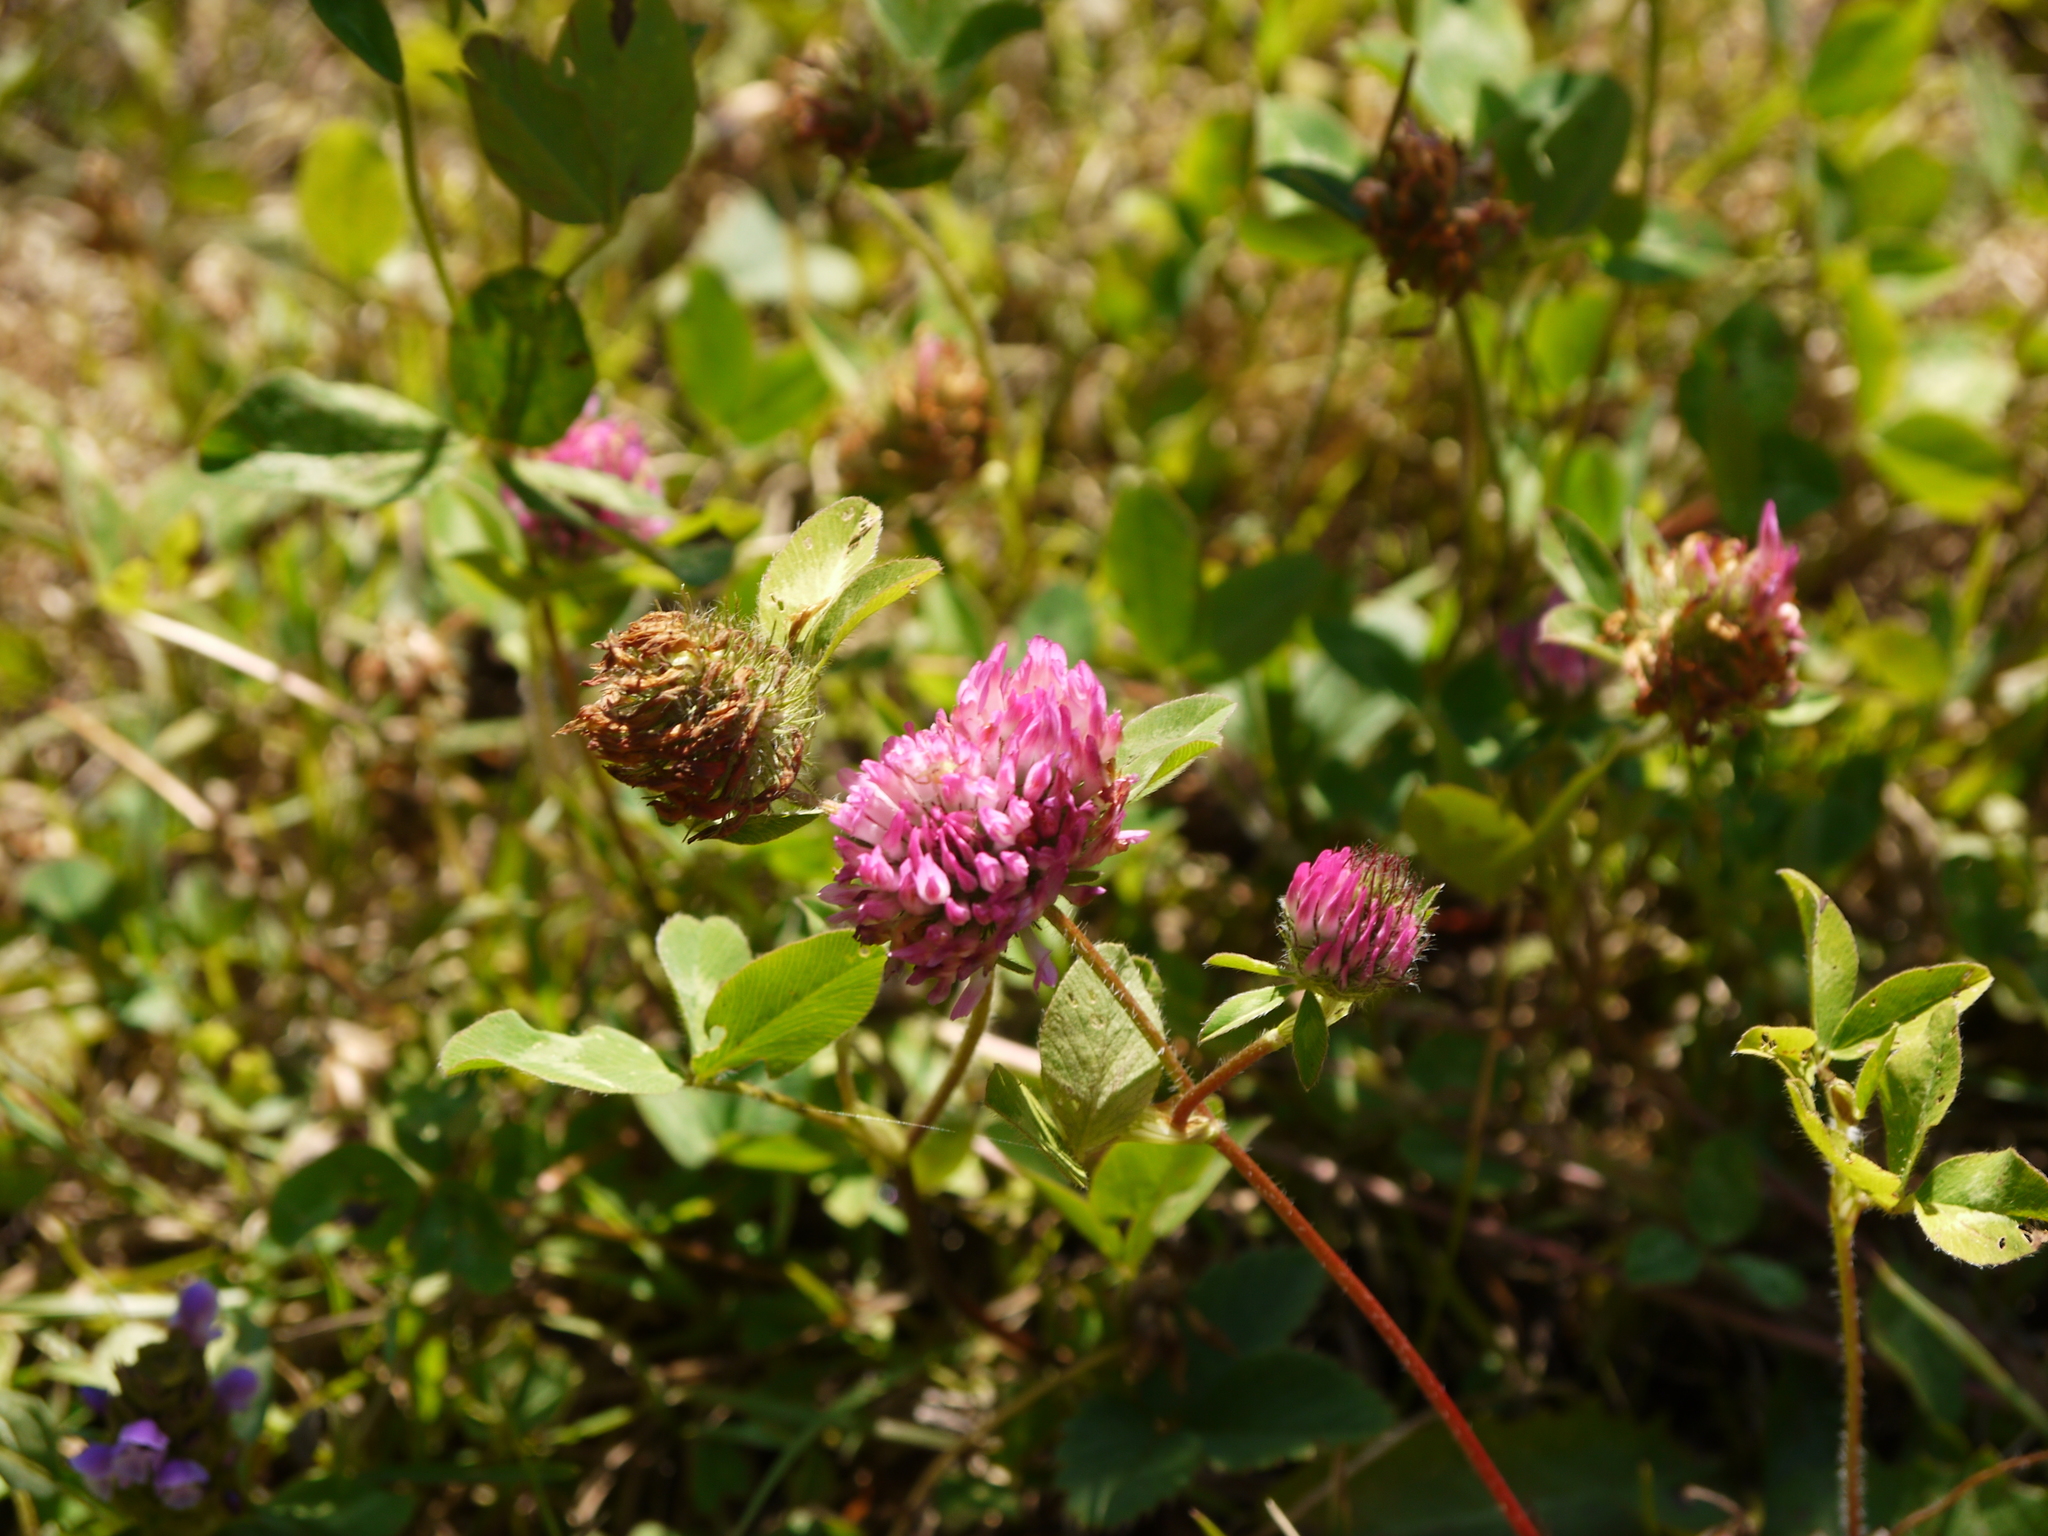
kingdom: Plantae
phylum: Tracheophyta
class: Magnoliopsida
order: Fabales
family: Fabaceae
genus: Trifolium
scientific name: Trifolium pratense
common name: Red clover
